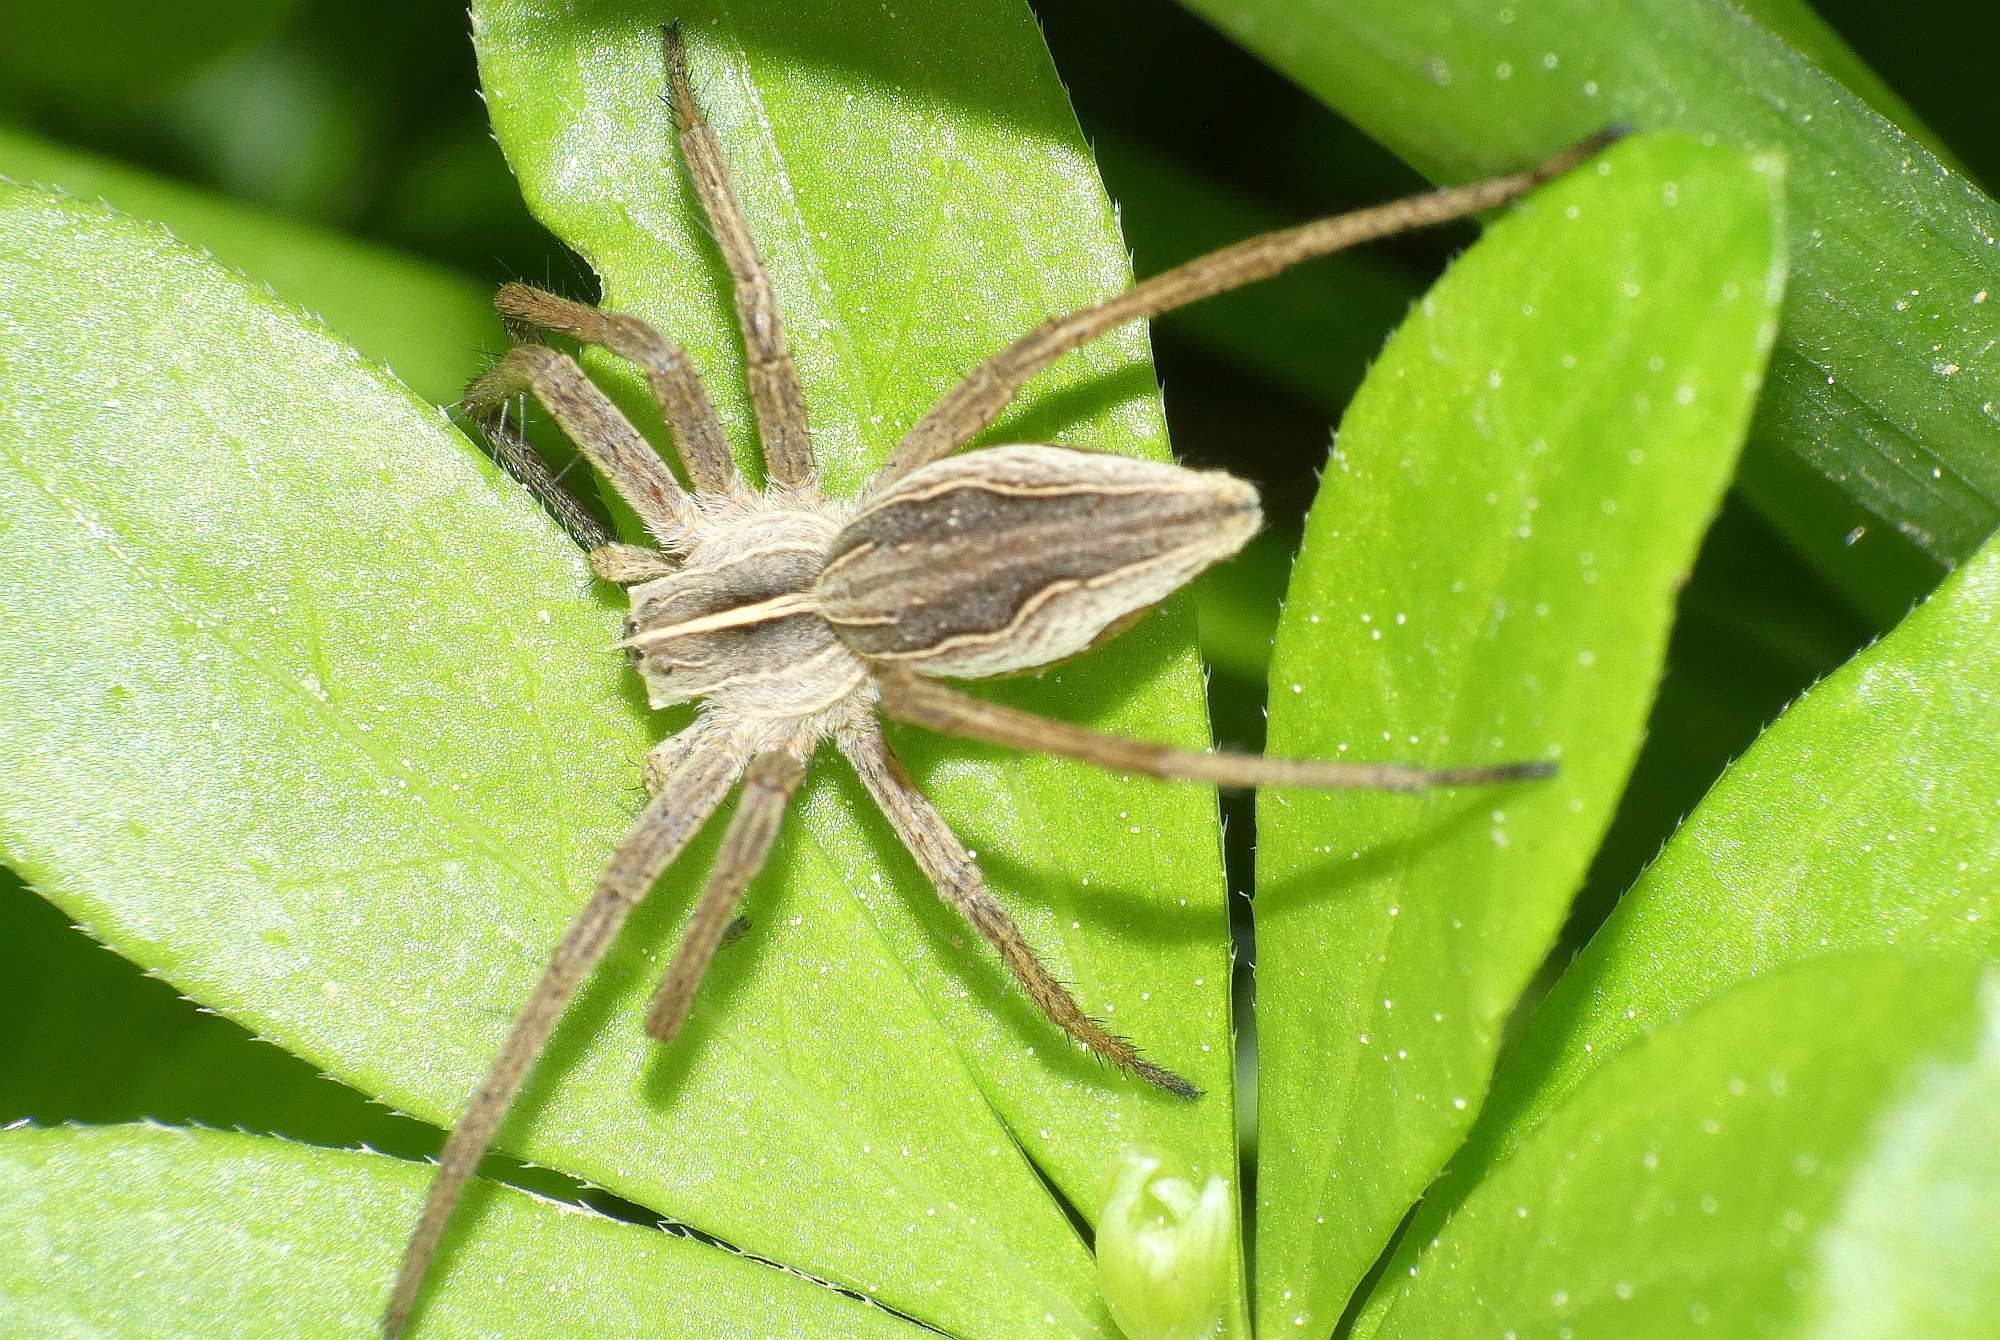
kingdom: Animalia
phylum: Arthropoda
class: Arachnida
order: Araneae
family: Pisauridae
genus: Pisaura
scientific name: Pisaura mirabilis
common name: Tent spider
